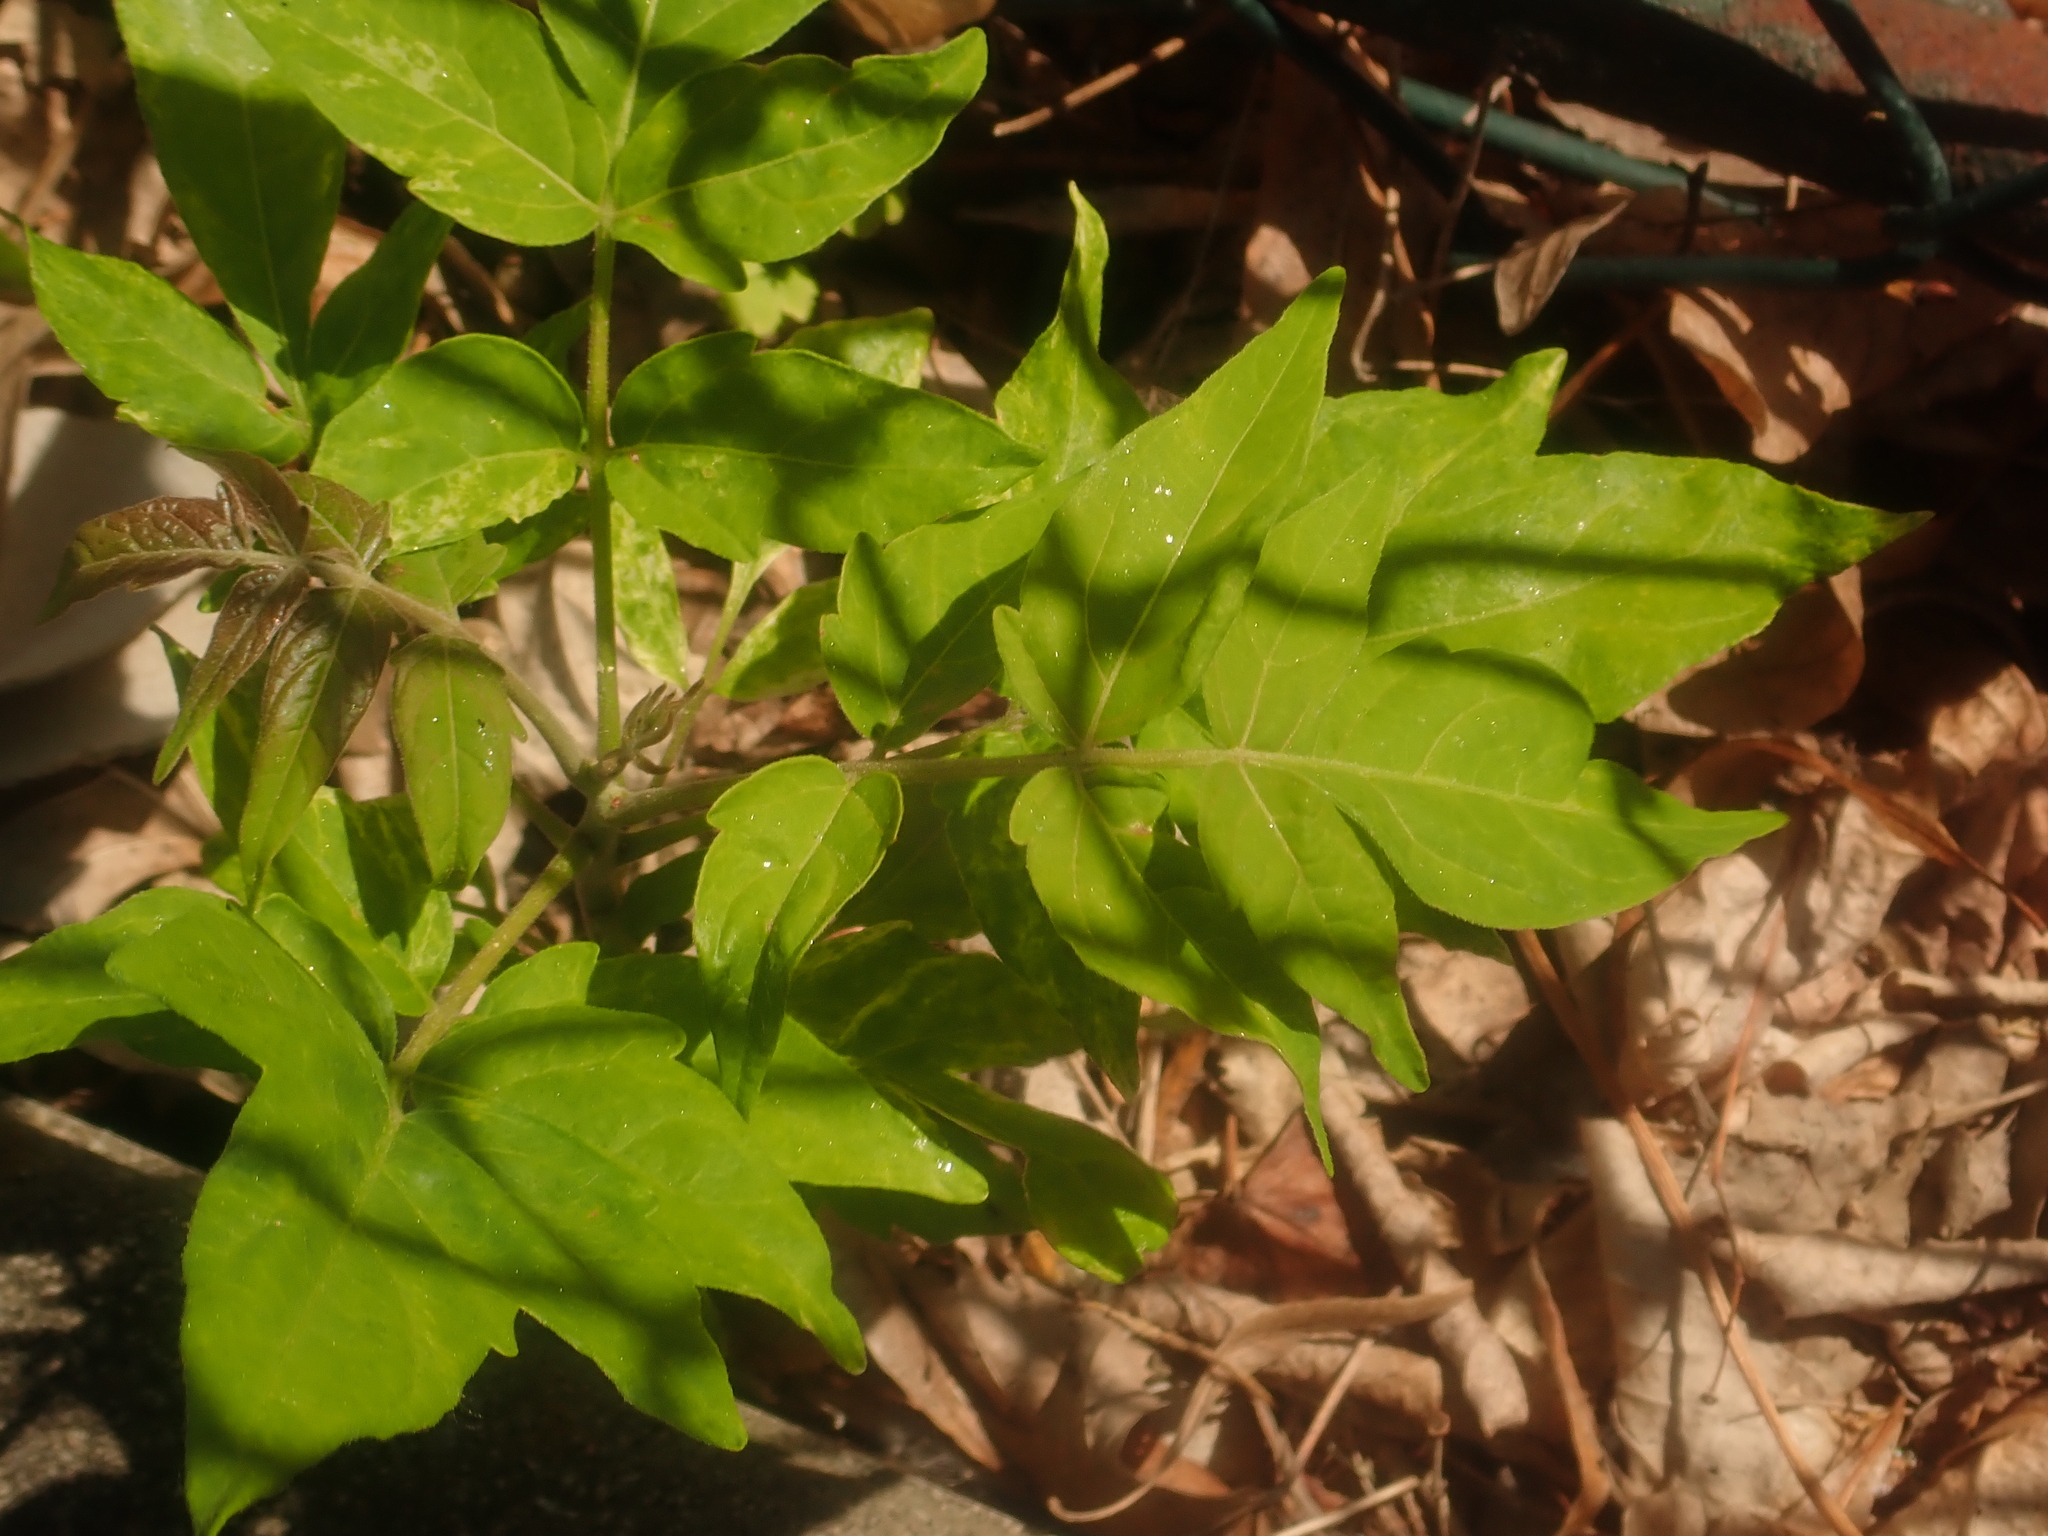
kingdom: Plantae
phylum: Tracheophyta
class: Magnoliopsida
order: Sapindales
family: Sapindaceae
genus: Acer
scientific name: Acer negundo
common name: Ashleaf maple
